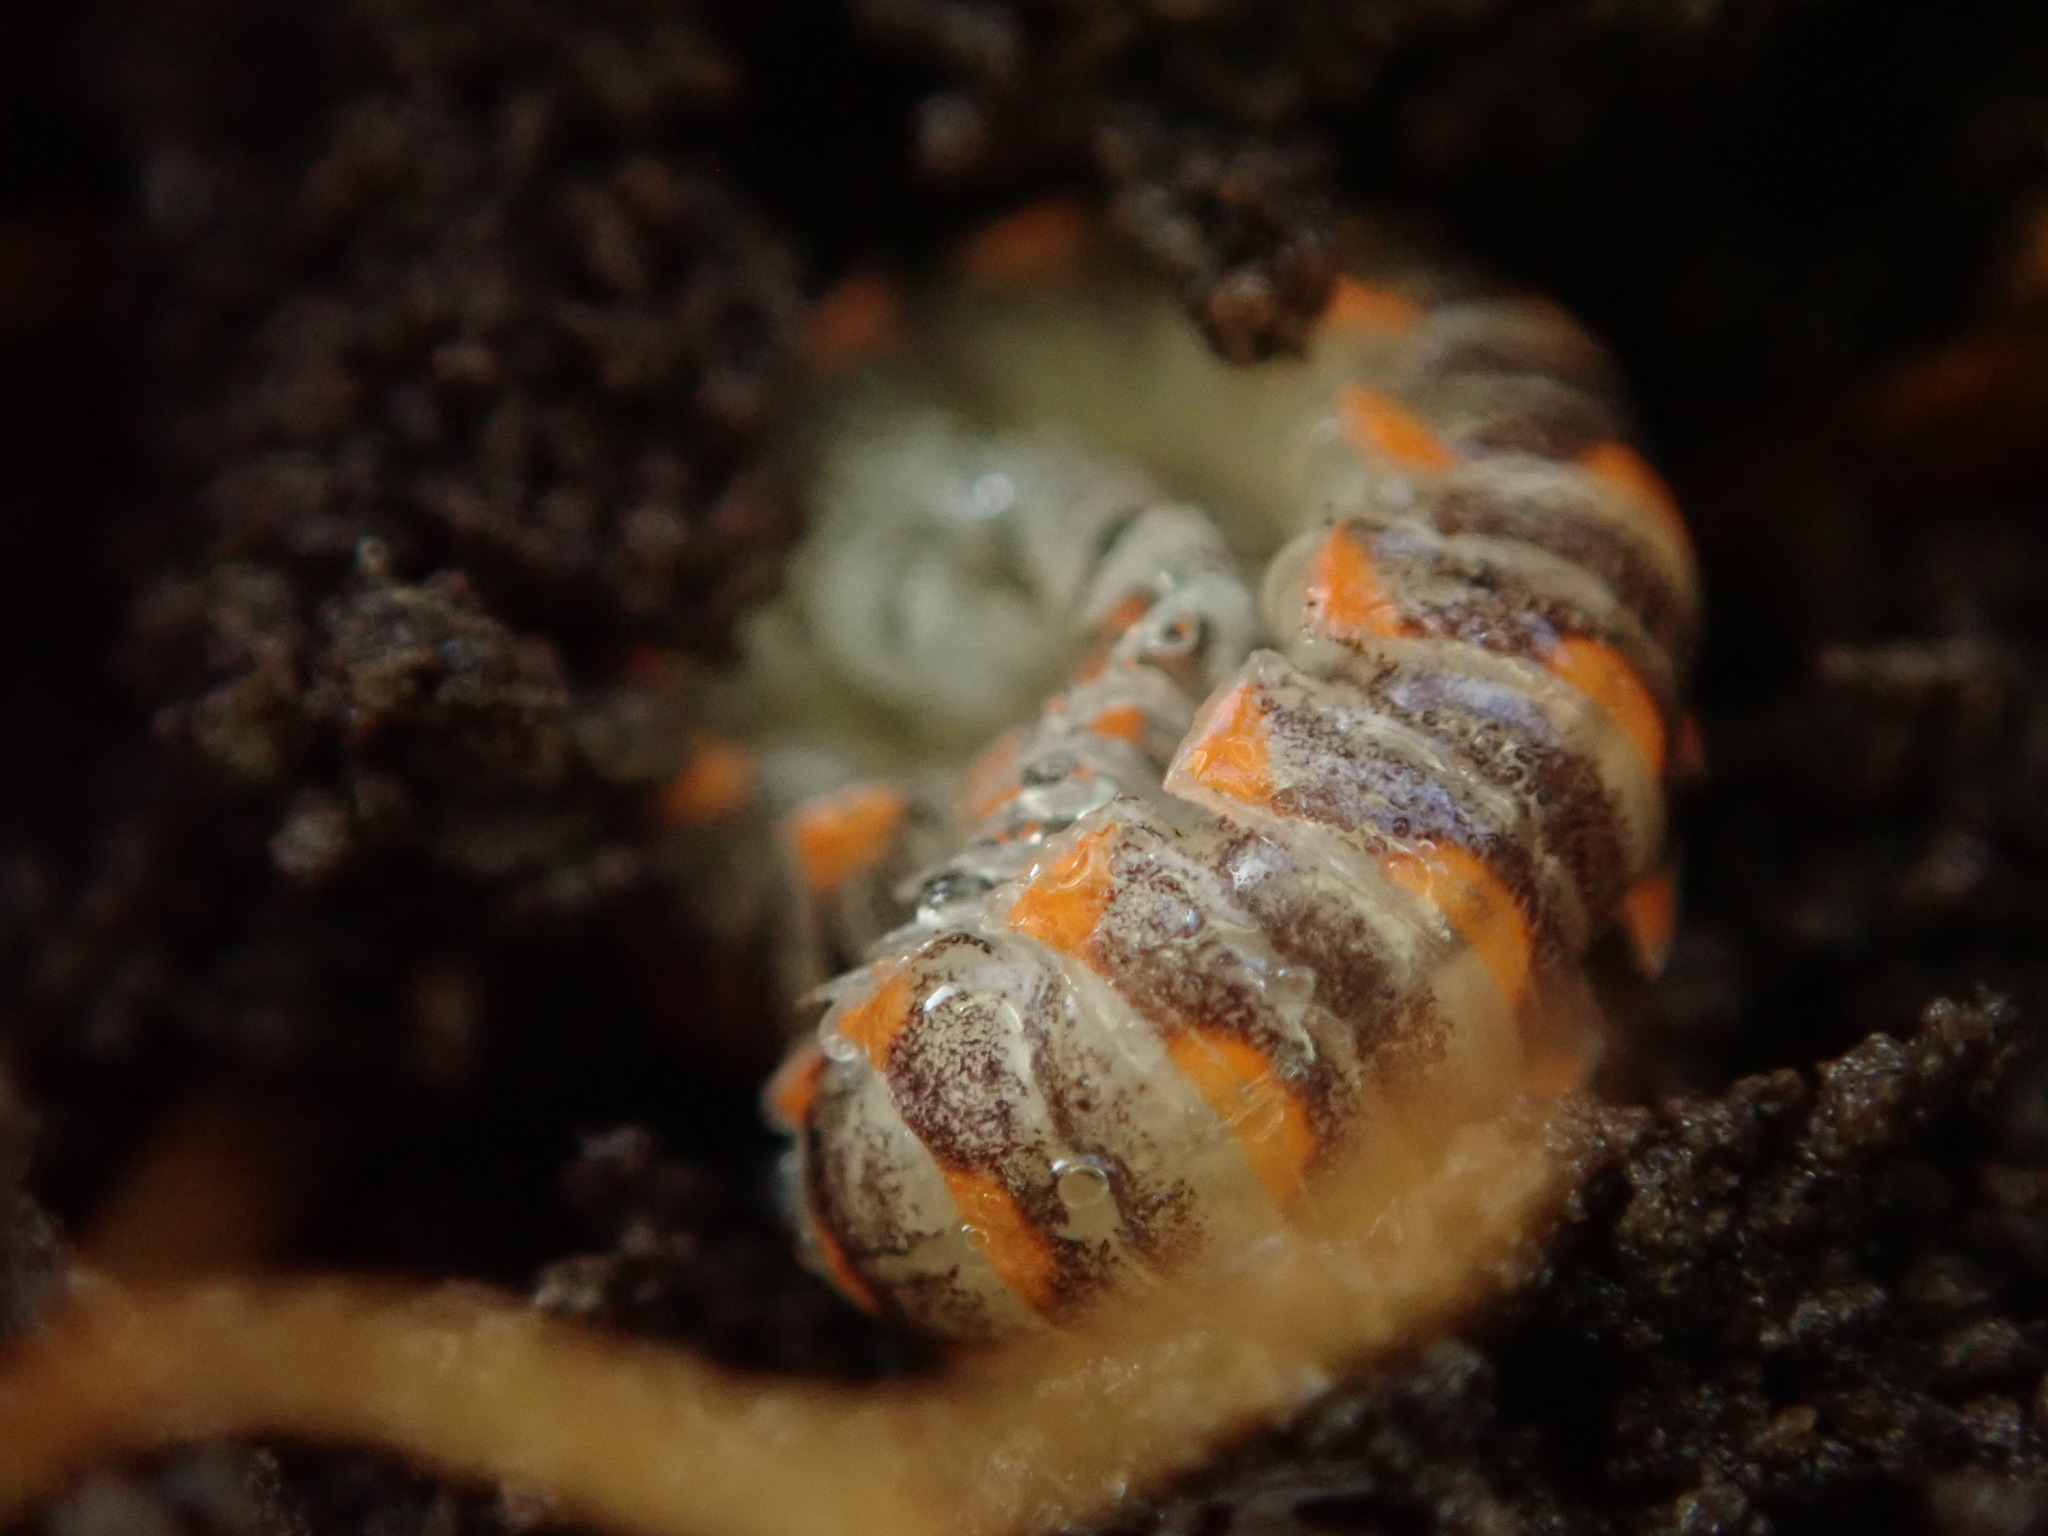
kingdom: Animalia
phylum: Arthropoda
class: Diplopoda
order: Polydesmida
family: Xystodesmidae
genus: Euryurus
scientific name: Euryurus leachii
